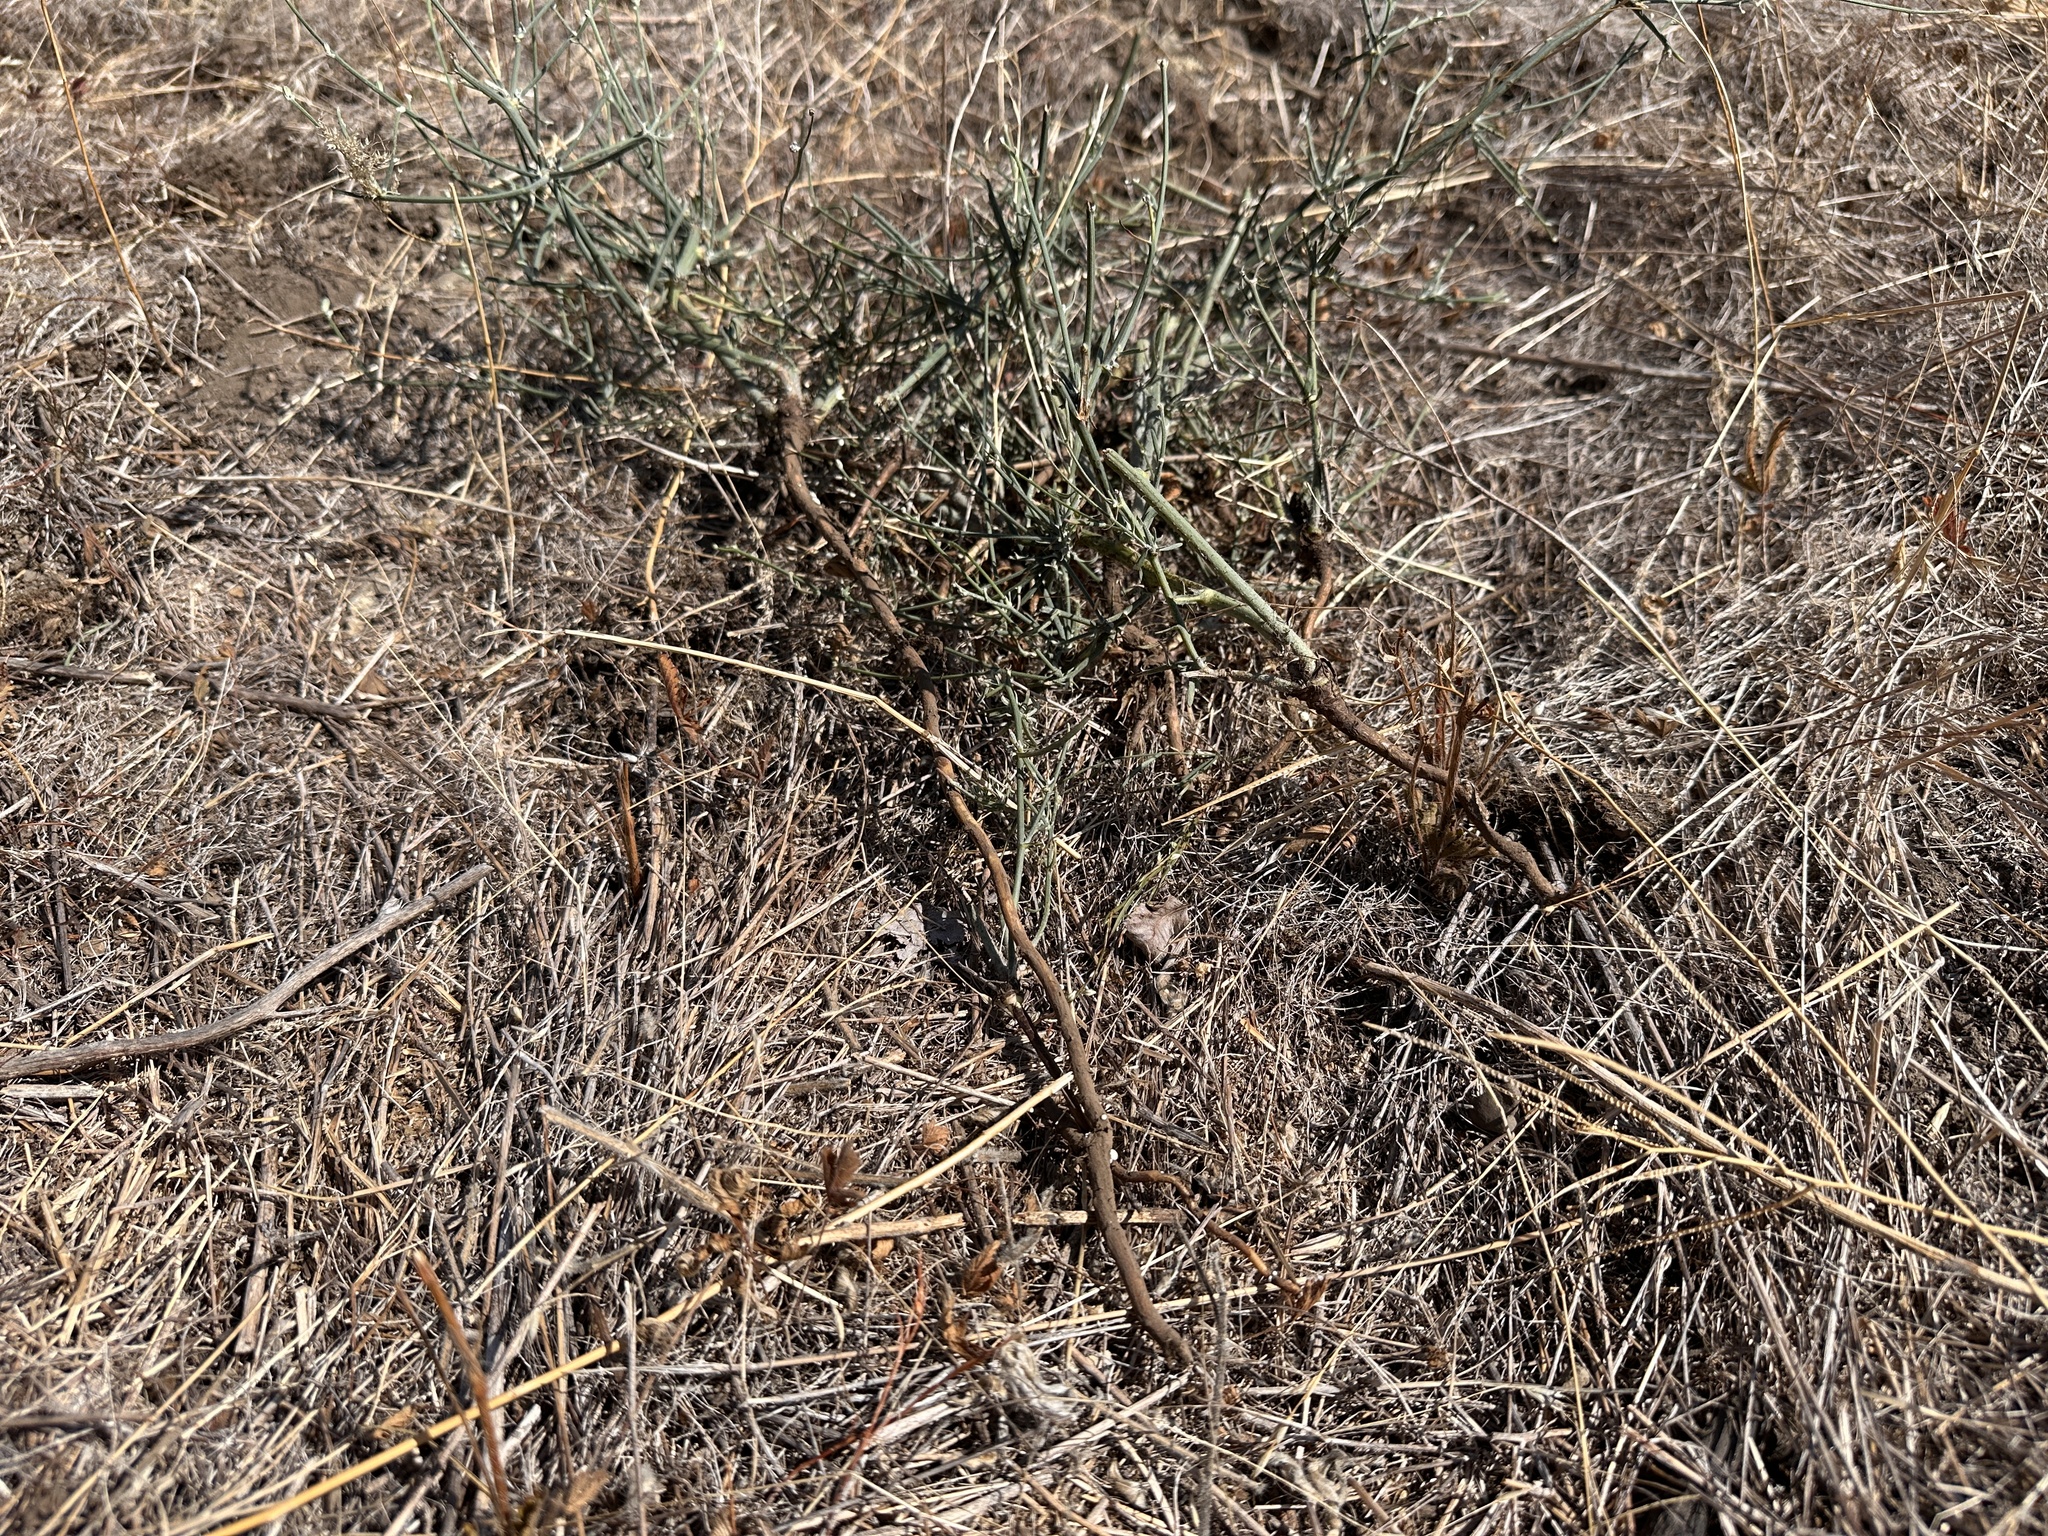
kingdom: Plantae
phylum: Tracheophyta
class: Magnoliopsida
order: Asterales
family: Asteraceae
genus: Chondrilla
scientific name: Chondrilla juncea
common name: Skeleton weed
